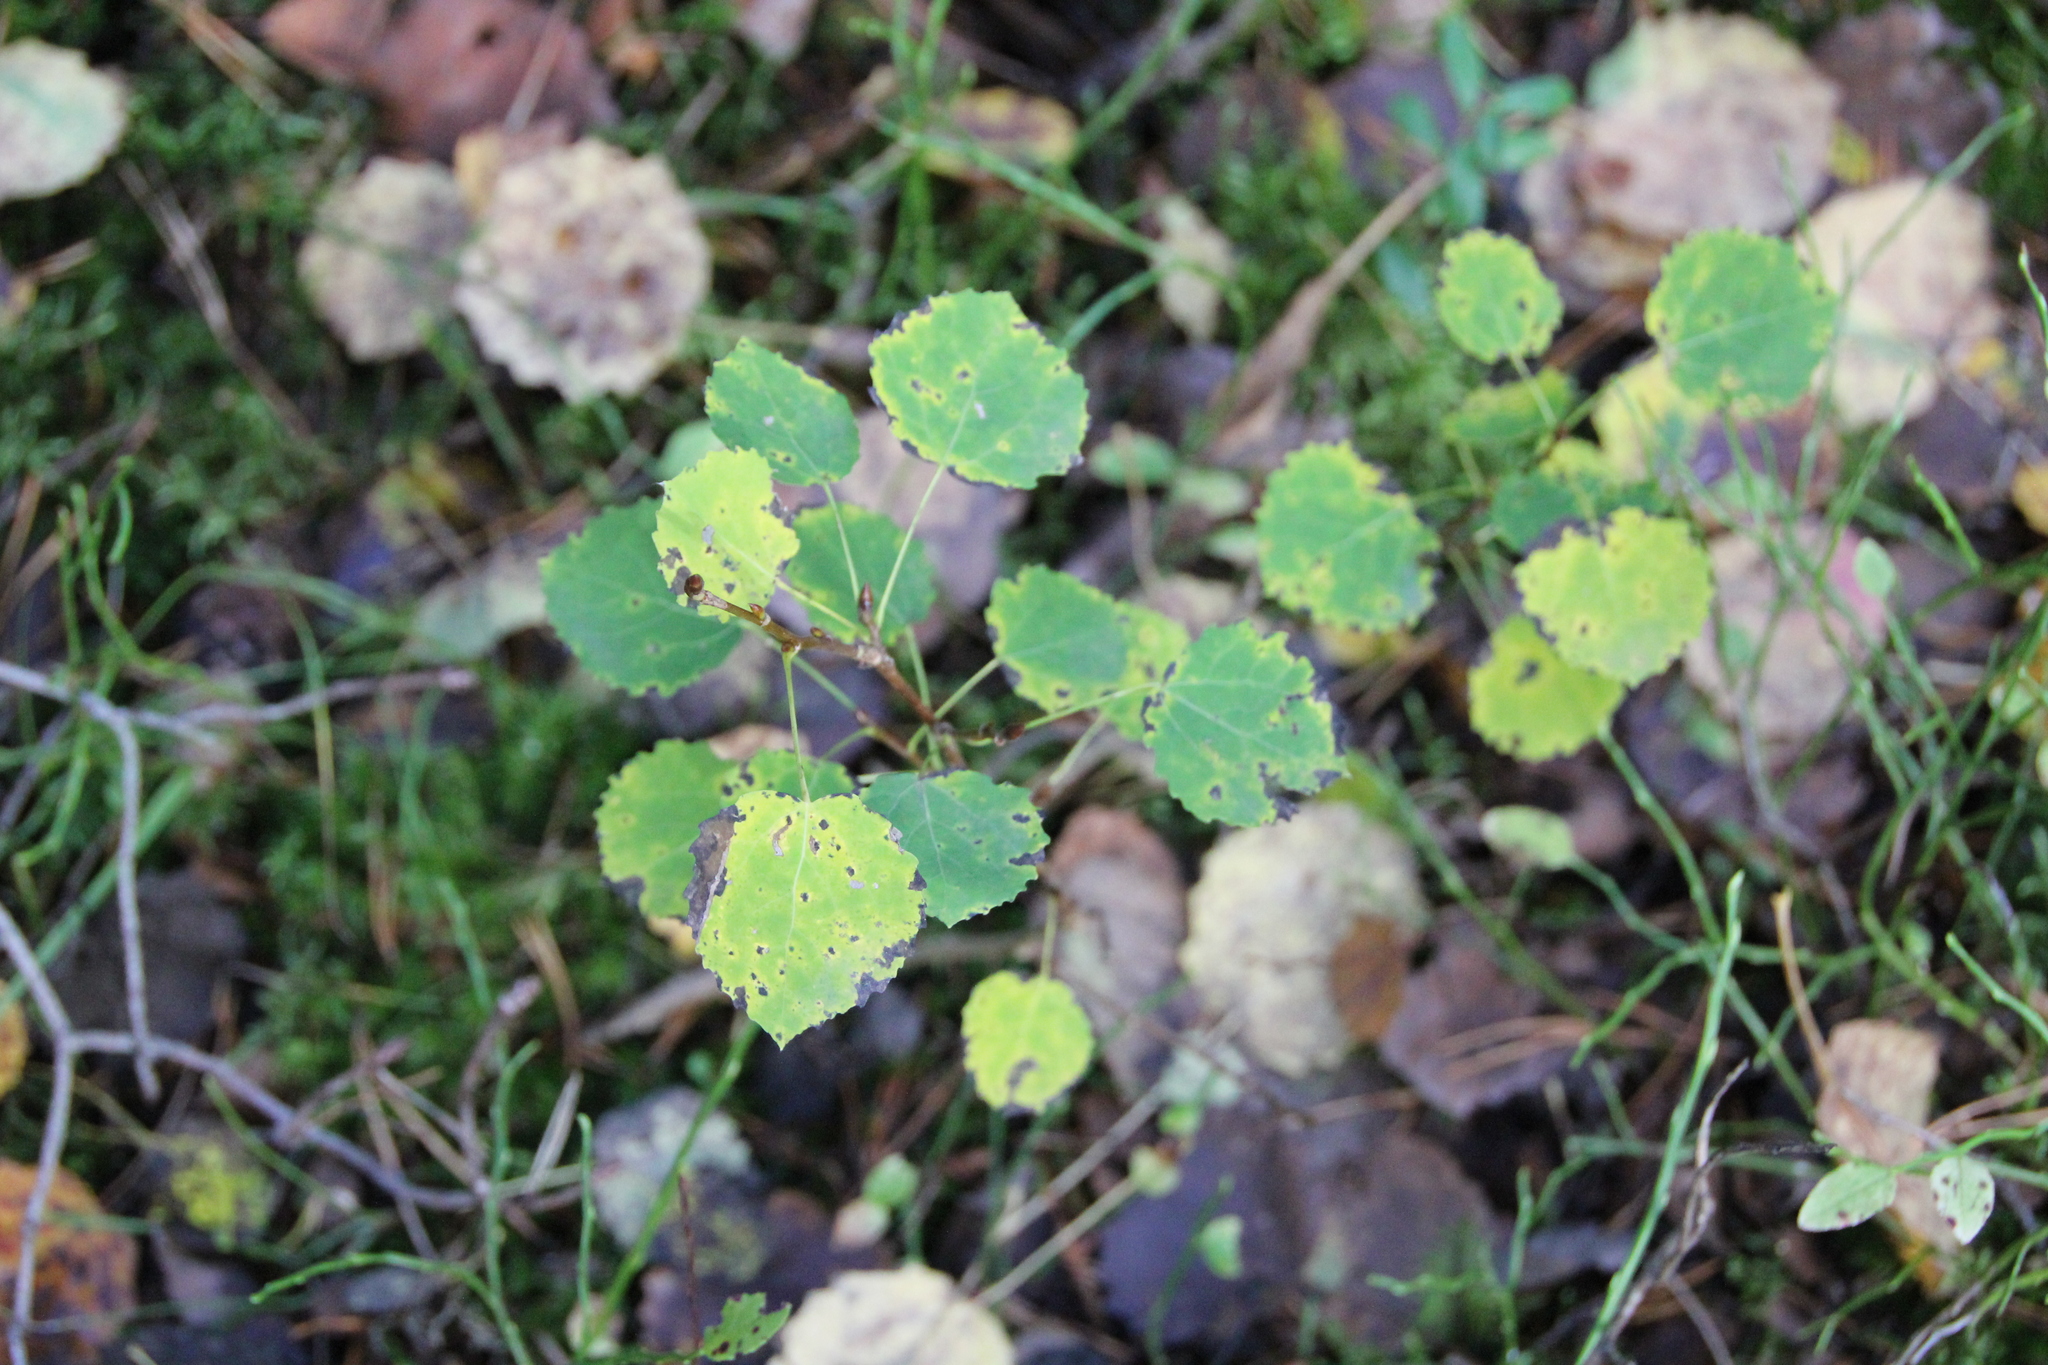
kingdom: Plantae
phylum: Tracheophyta
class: Magnoliopsida
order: Malpighiales
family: Salicaceae
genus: Populus
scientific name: Populus tremula
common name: European aspen
